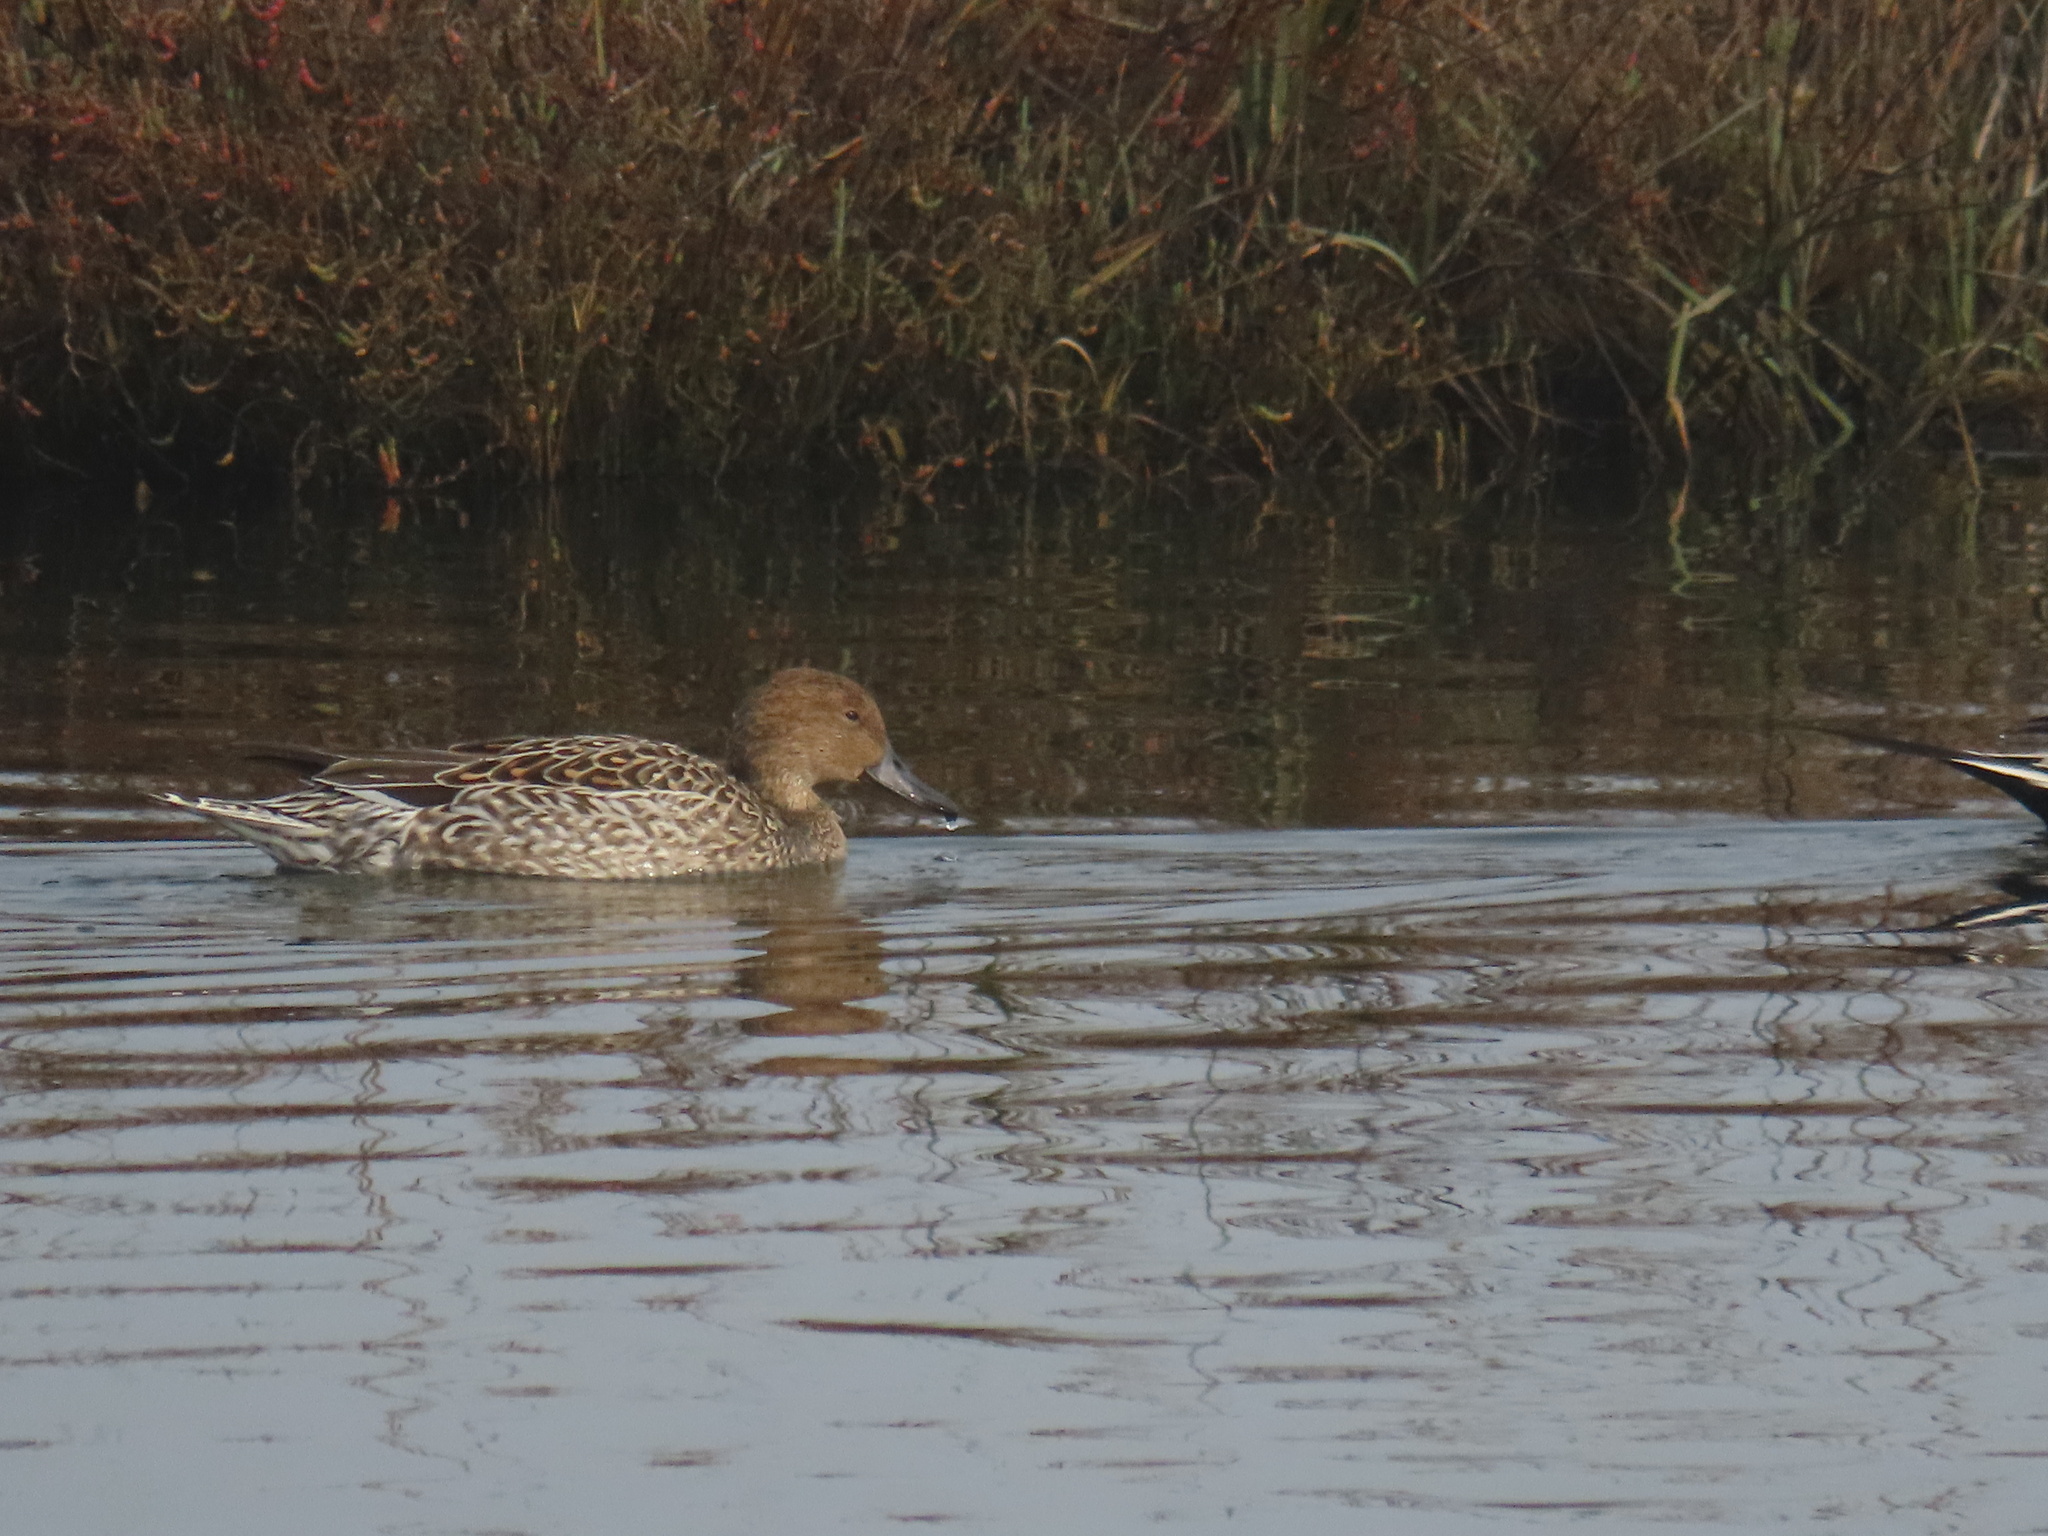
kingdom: Animalia
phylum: Chordata
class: Aves
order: Anseriformes
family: Anatidae
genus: Anas
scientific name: Anas acuta
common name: Northern pintail
